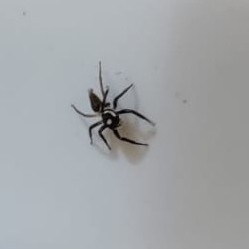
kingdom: Animalia
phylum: Arthropoda
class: Arachnida
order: Araneae
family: Salticidae
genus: Hasarius
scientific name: Hasarius adansoni
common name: Jumping spider
